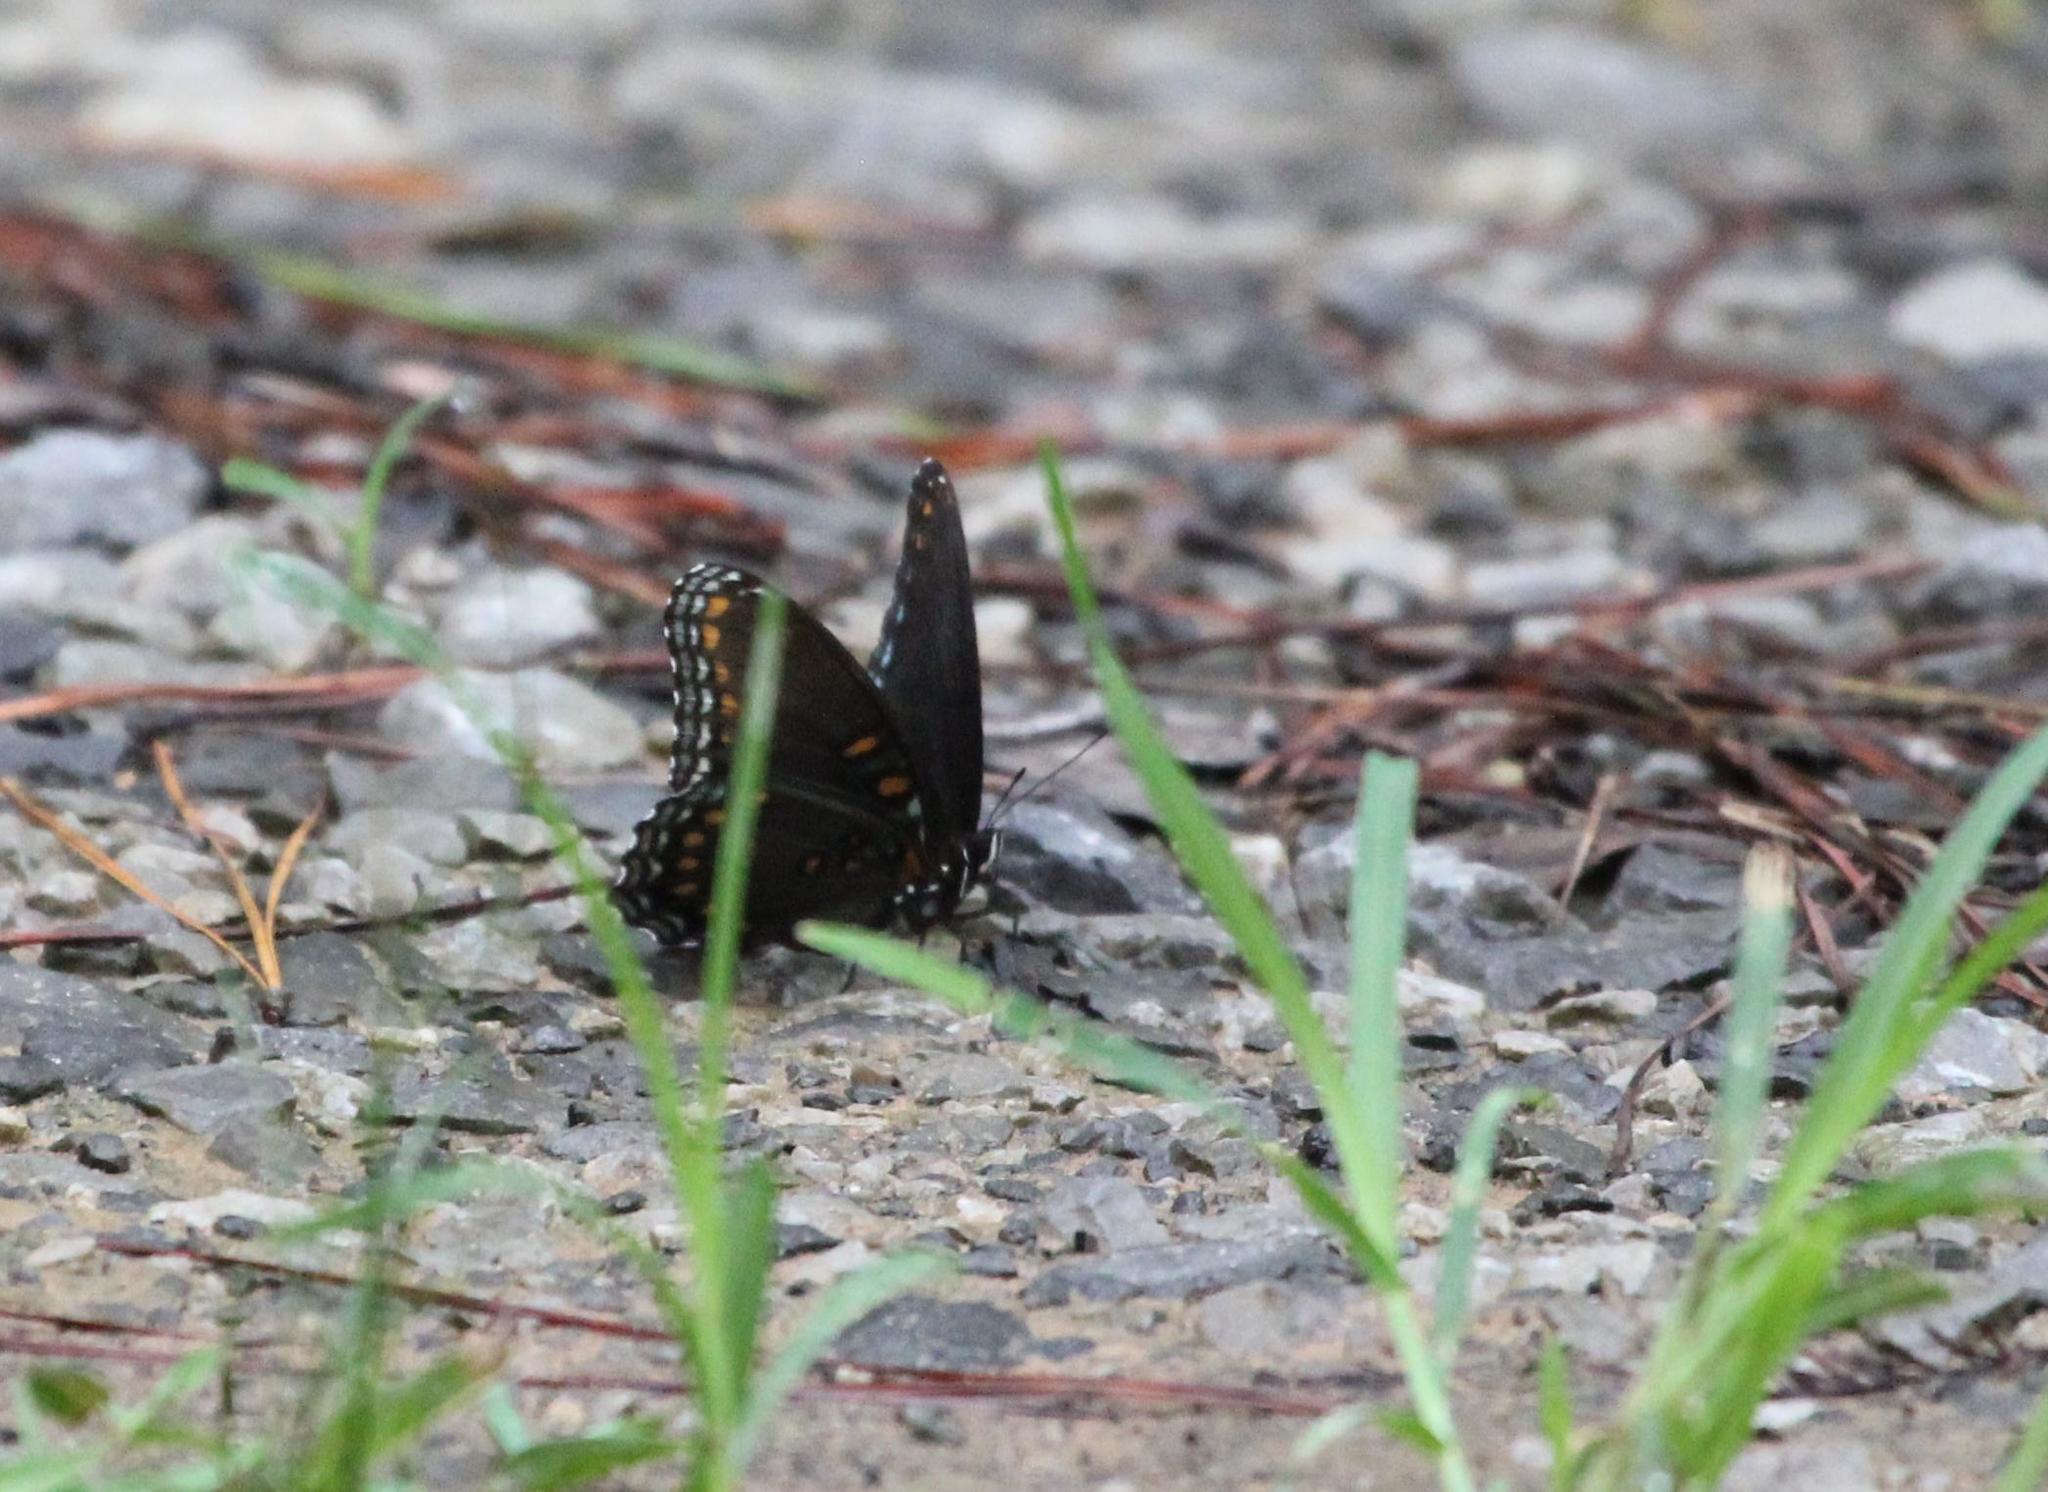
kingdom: Animalia
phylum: Arthropoda
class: Insecta
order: Lepidoptera
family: Nymphalidae
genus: Limenitis
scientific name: Limenitis arthemis
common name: Red-spotted admiral
